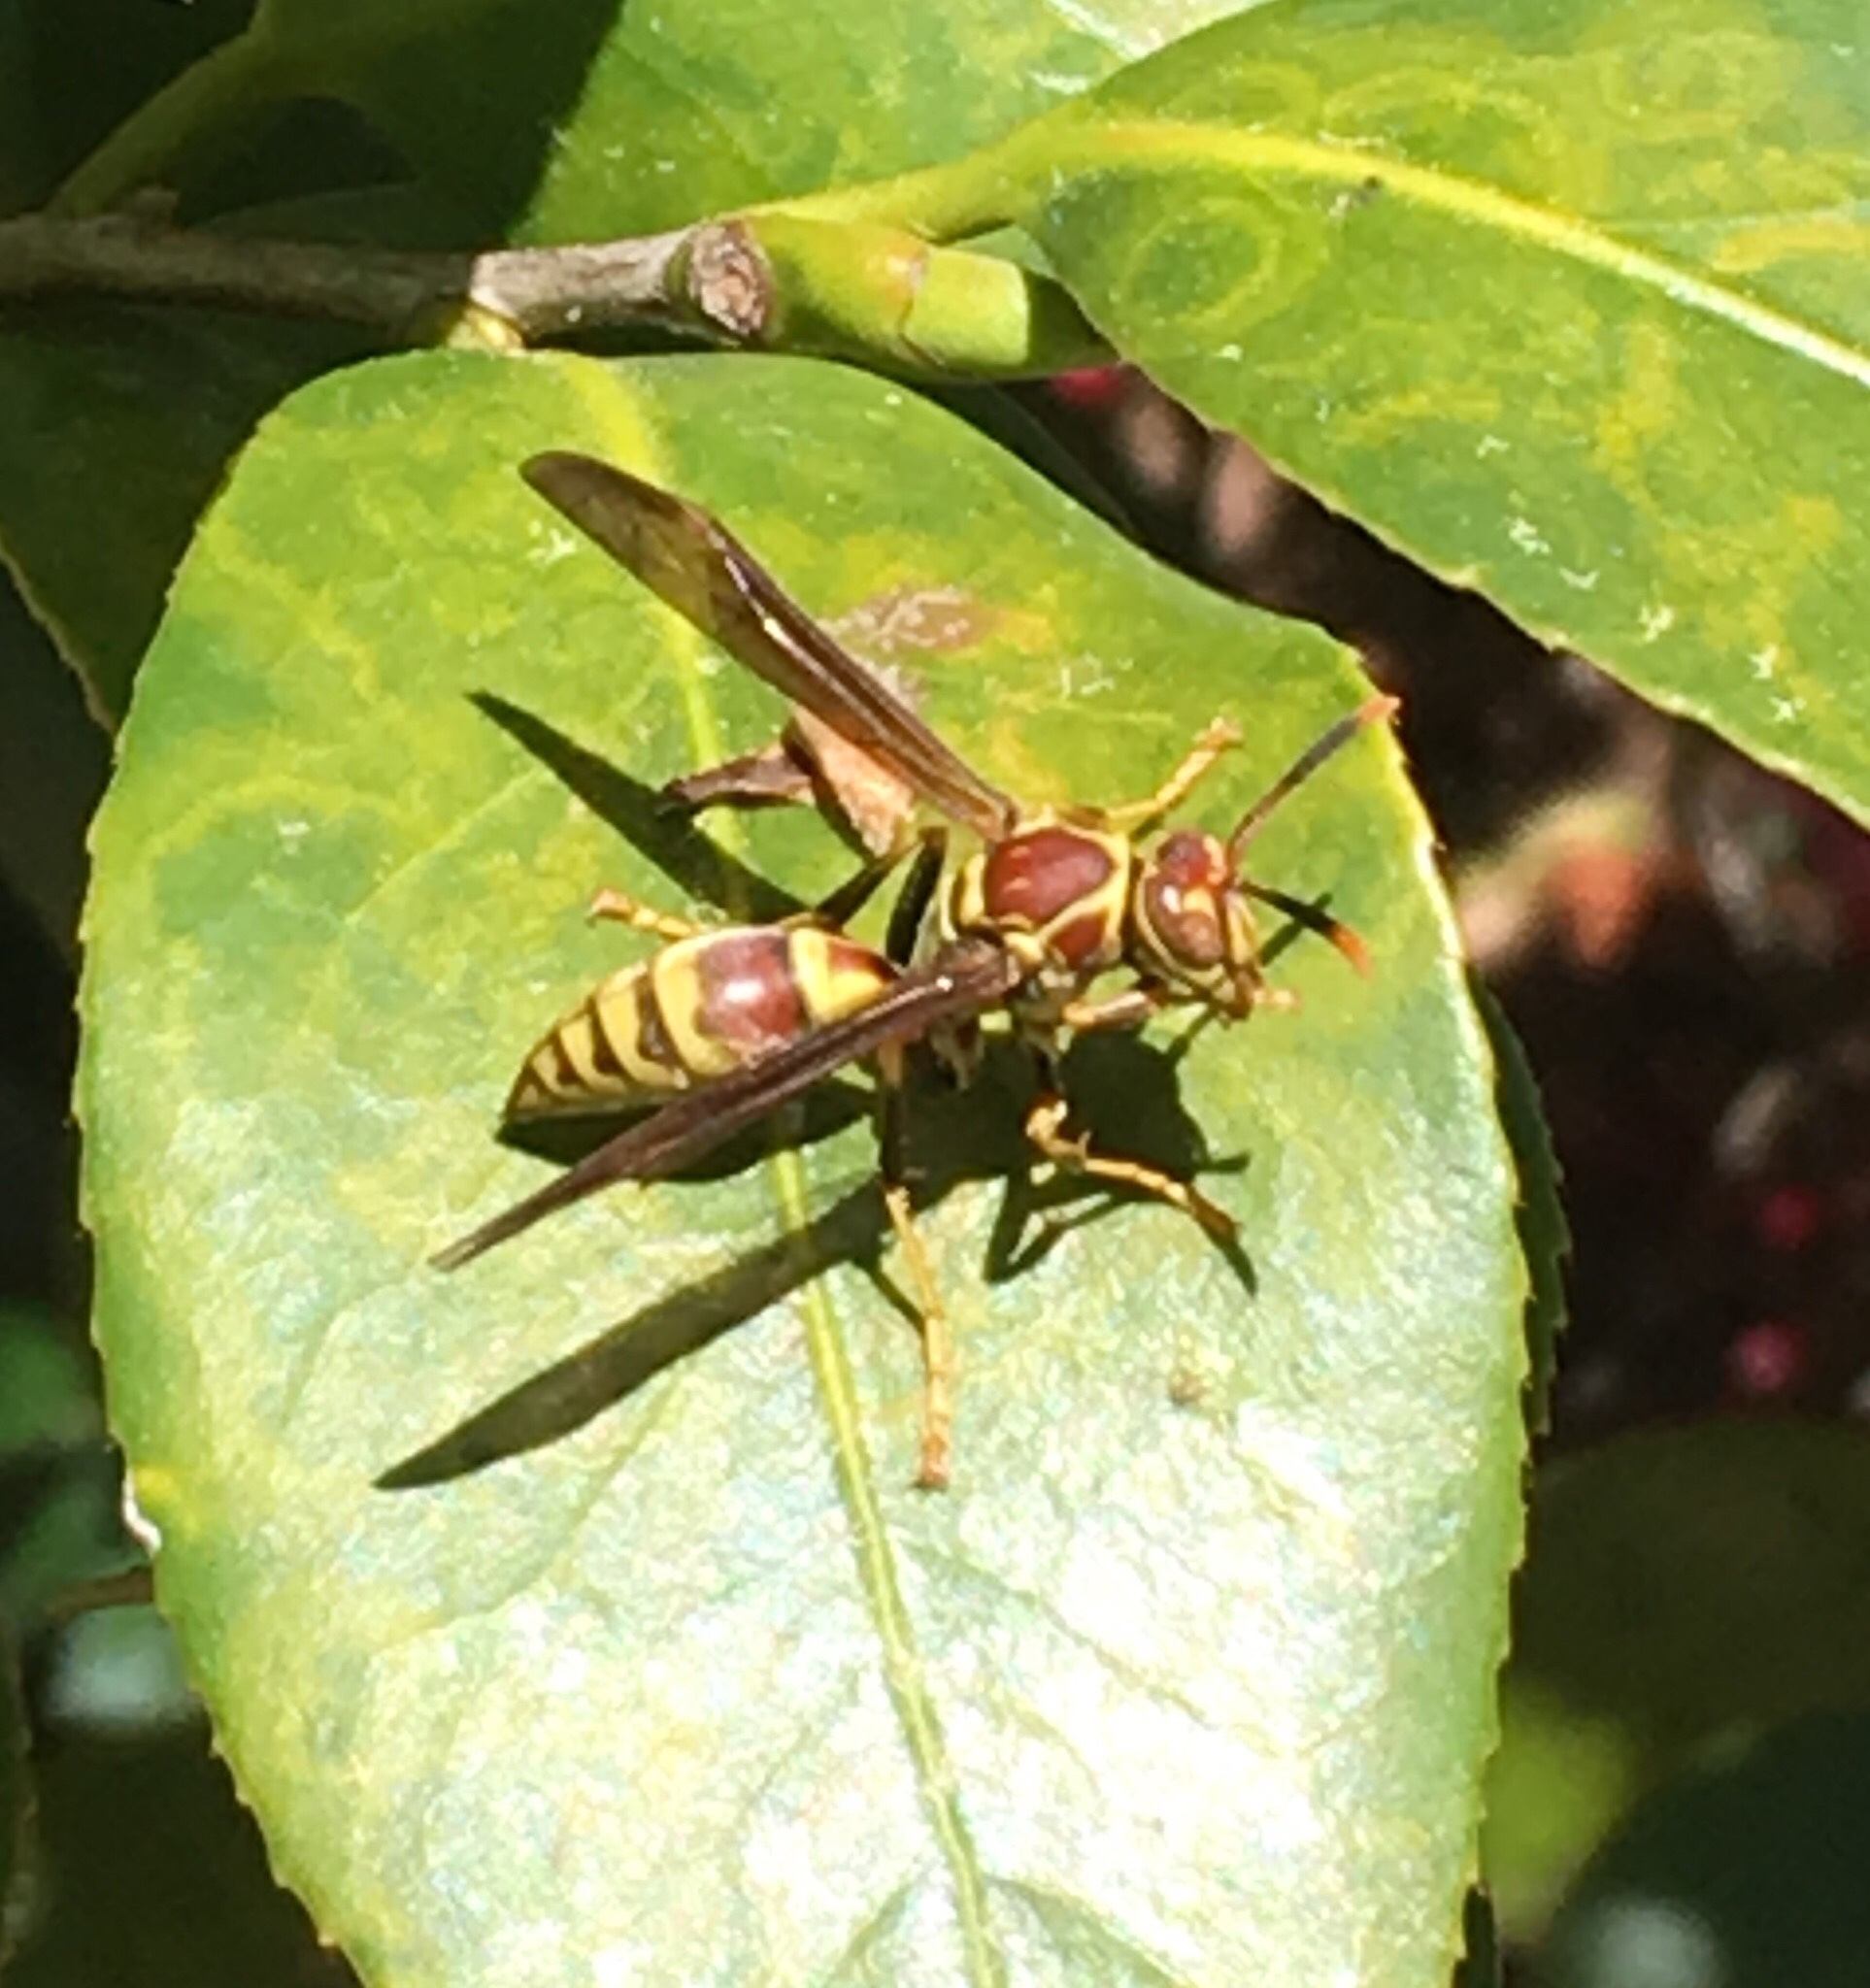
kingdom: Animalia
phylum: Arthropoda
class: Insecta
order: Hymenoptera
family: Eumenidae
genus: Polistes
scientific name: Polistes exclamans
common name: Paper wasp
